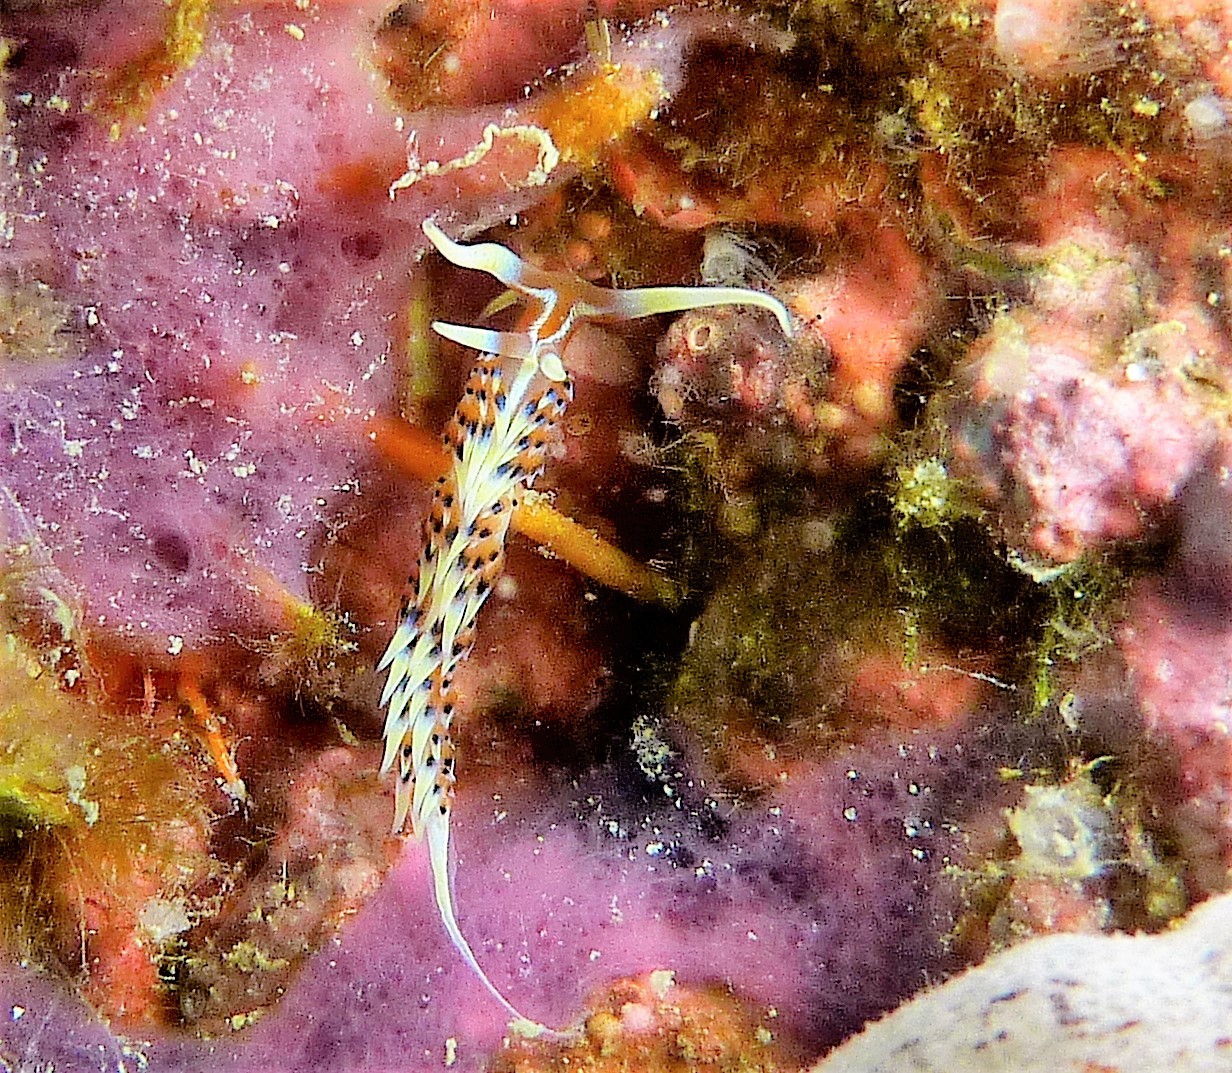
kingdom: Animalia
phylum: Mollusca
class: Gastropoda
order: Nudibranchia
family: Facelinidae
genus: Caloria
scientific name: Caloria indica
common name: Sea slug
